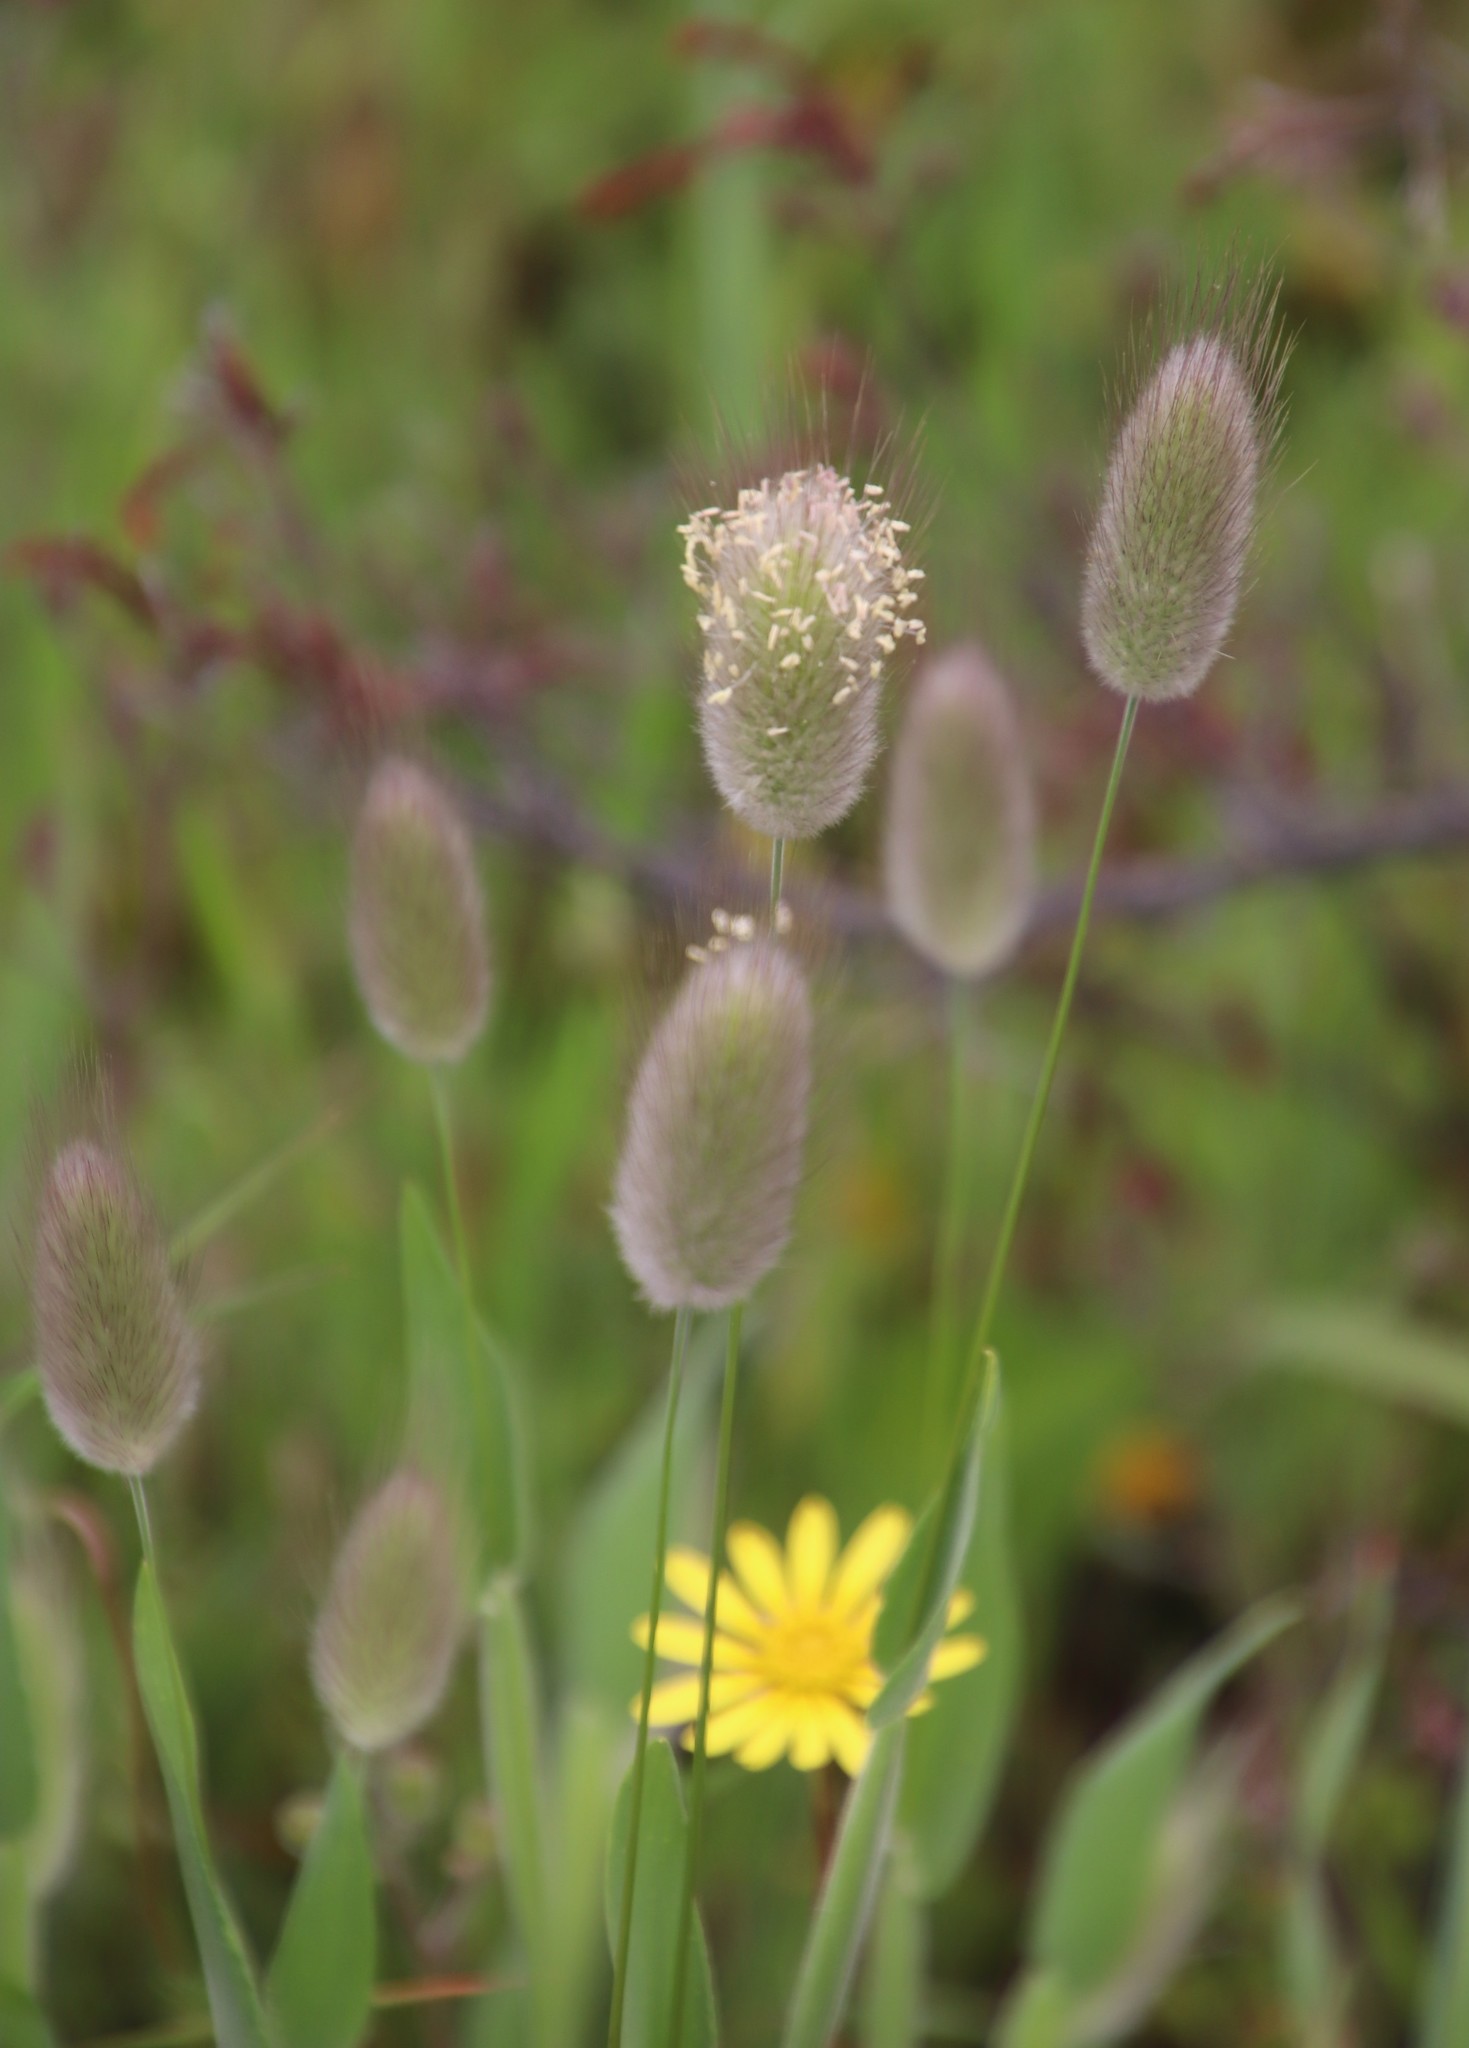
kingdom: Plantae
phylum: Tracheophyta
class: Liliopsida
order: Poales
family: Poaceae
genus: Lagurus
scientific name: Lagurus ovatus
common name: Hare's-tail
